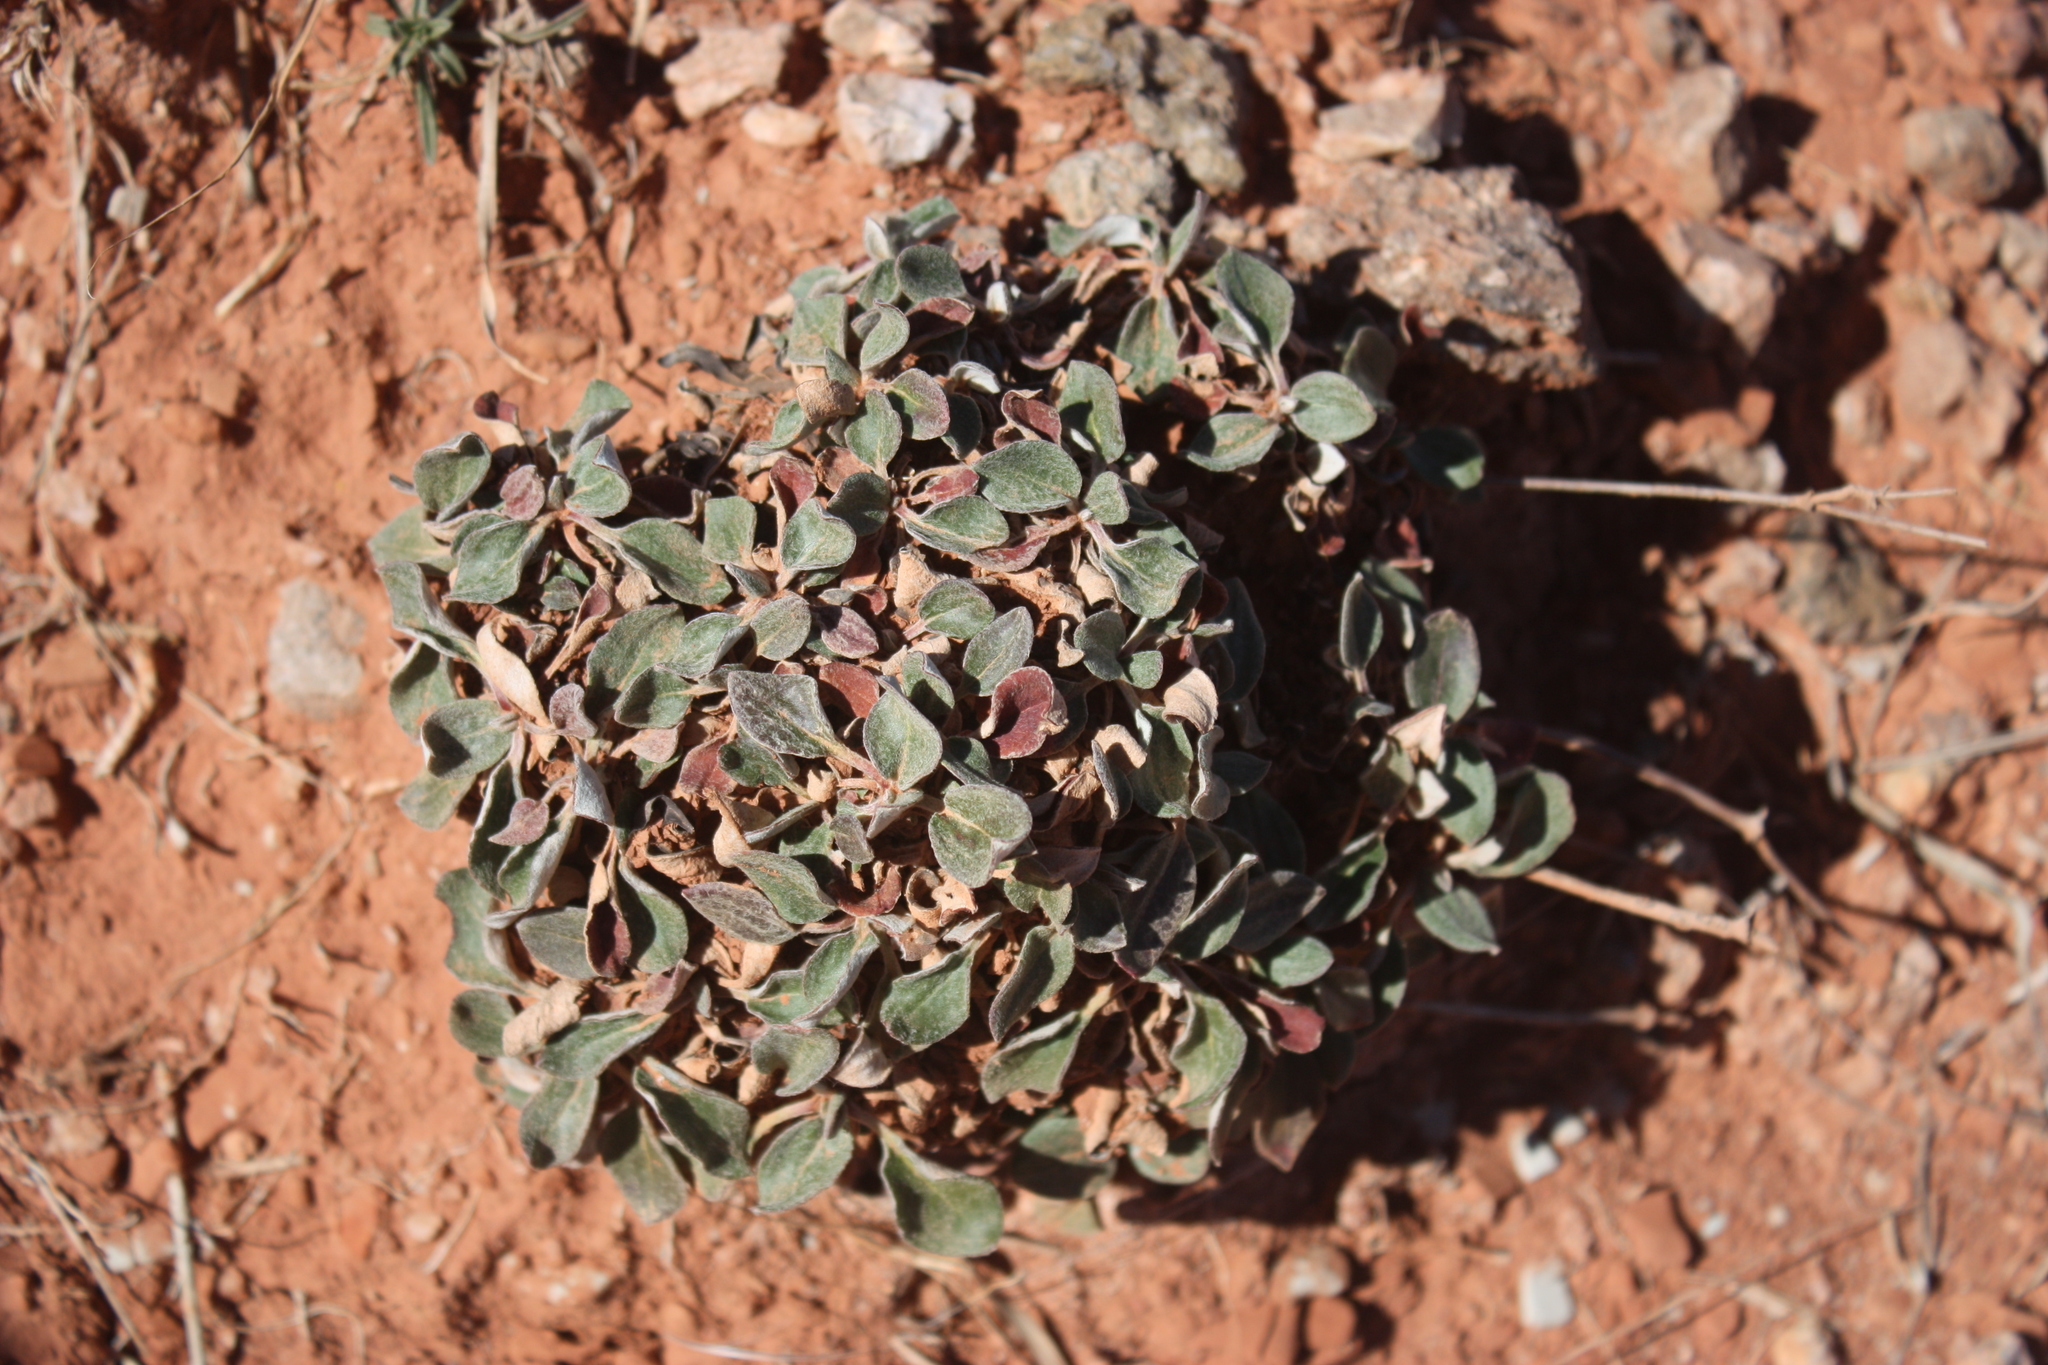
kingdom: Plantae
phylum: Tracheophyta
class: Magnoliopsida
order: Caryophyllales
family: Polygonaceae
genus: Eriogonum
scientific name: Eriogonum jamesii
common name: Antelope-sage
